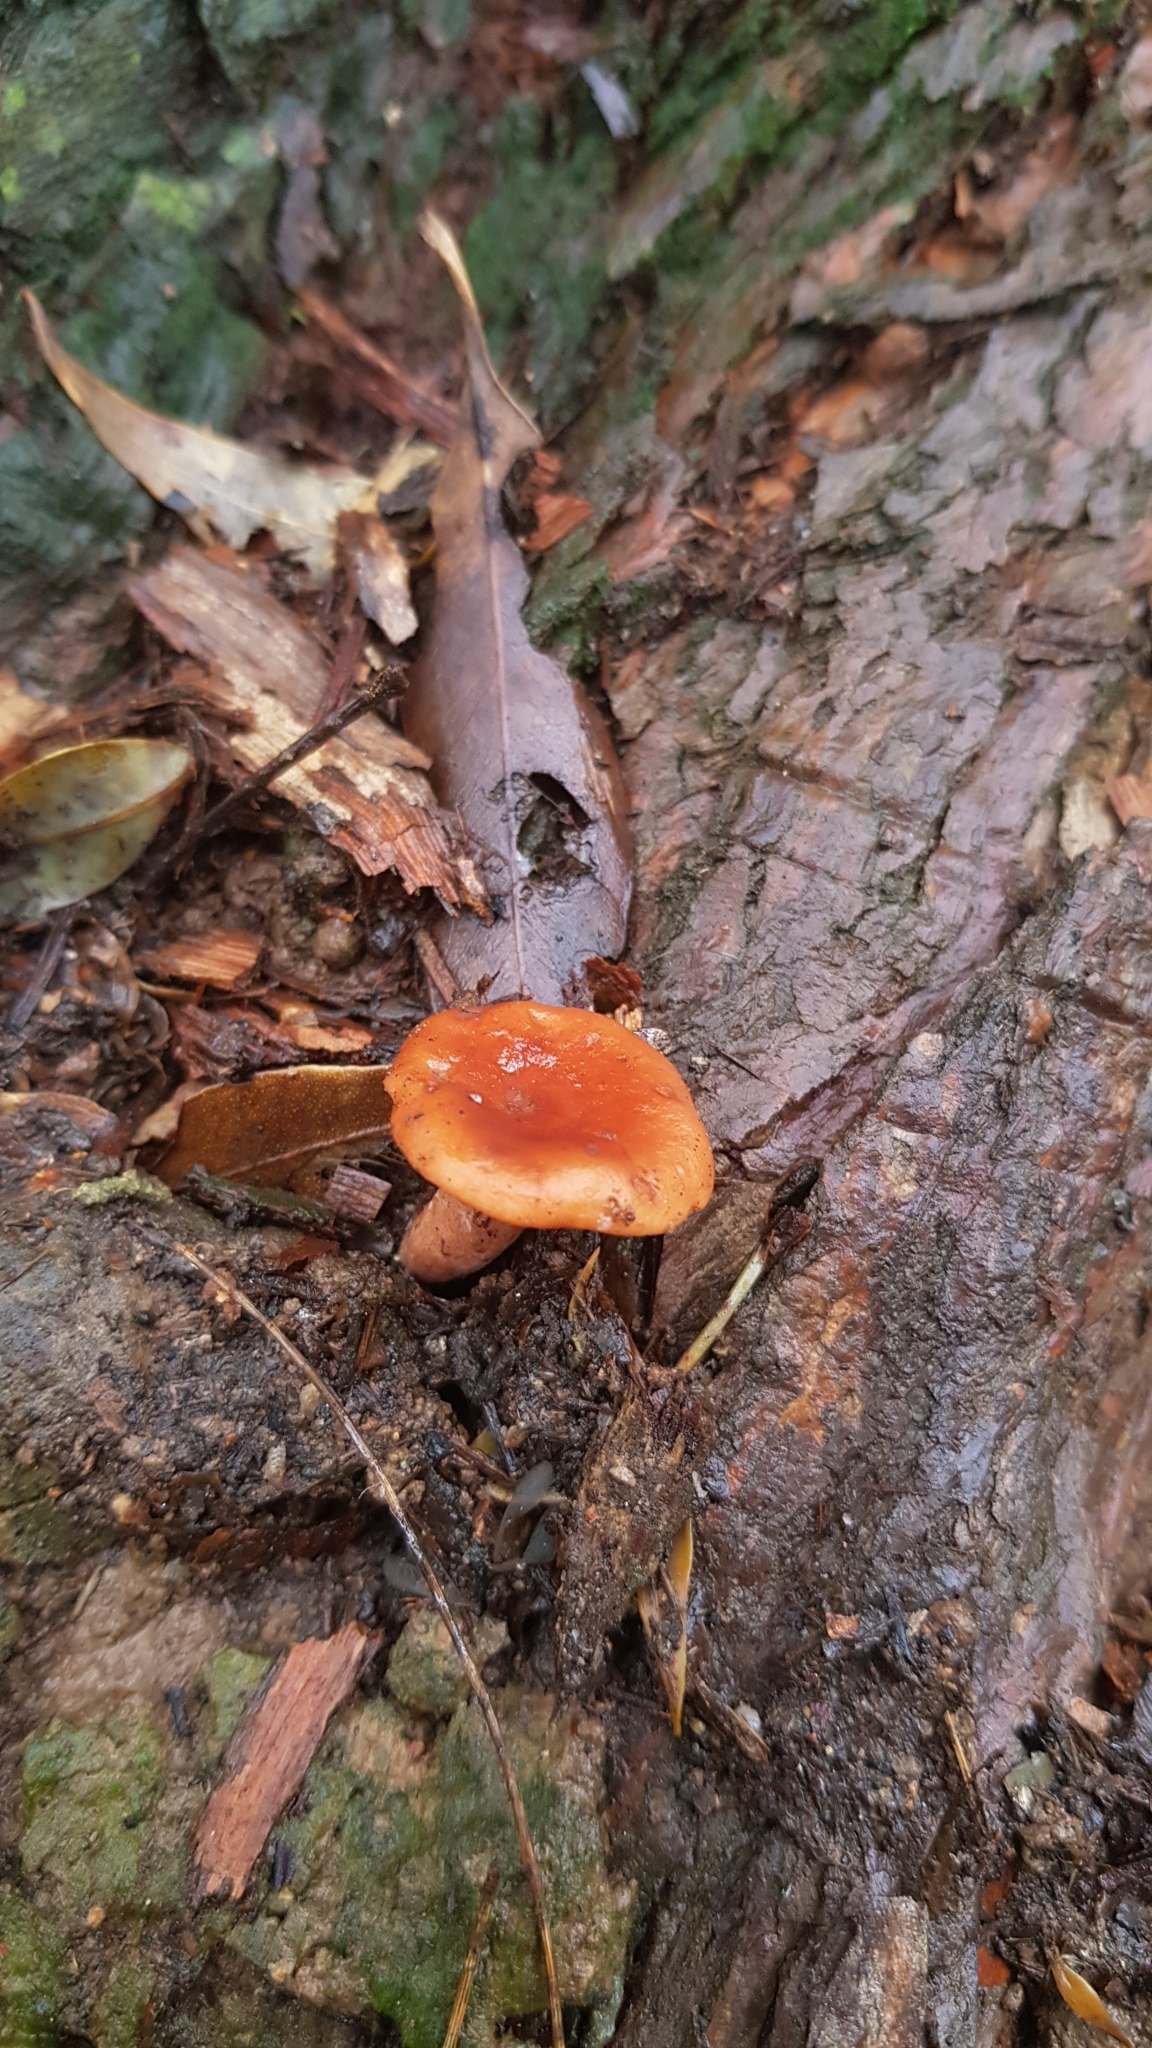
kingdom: Fungi
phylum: Basidiomycota
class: Agaricomycetes
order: Russulales
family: Russulaceae
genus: Lactarius
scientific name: Lactarius eucalypti
